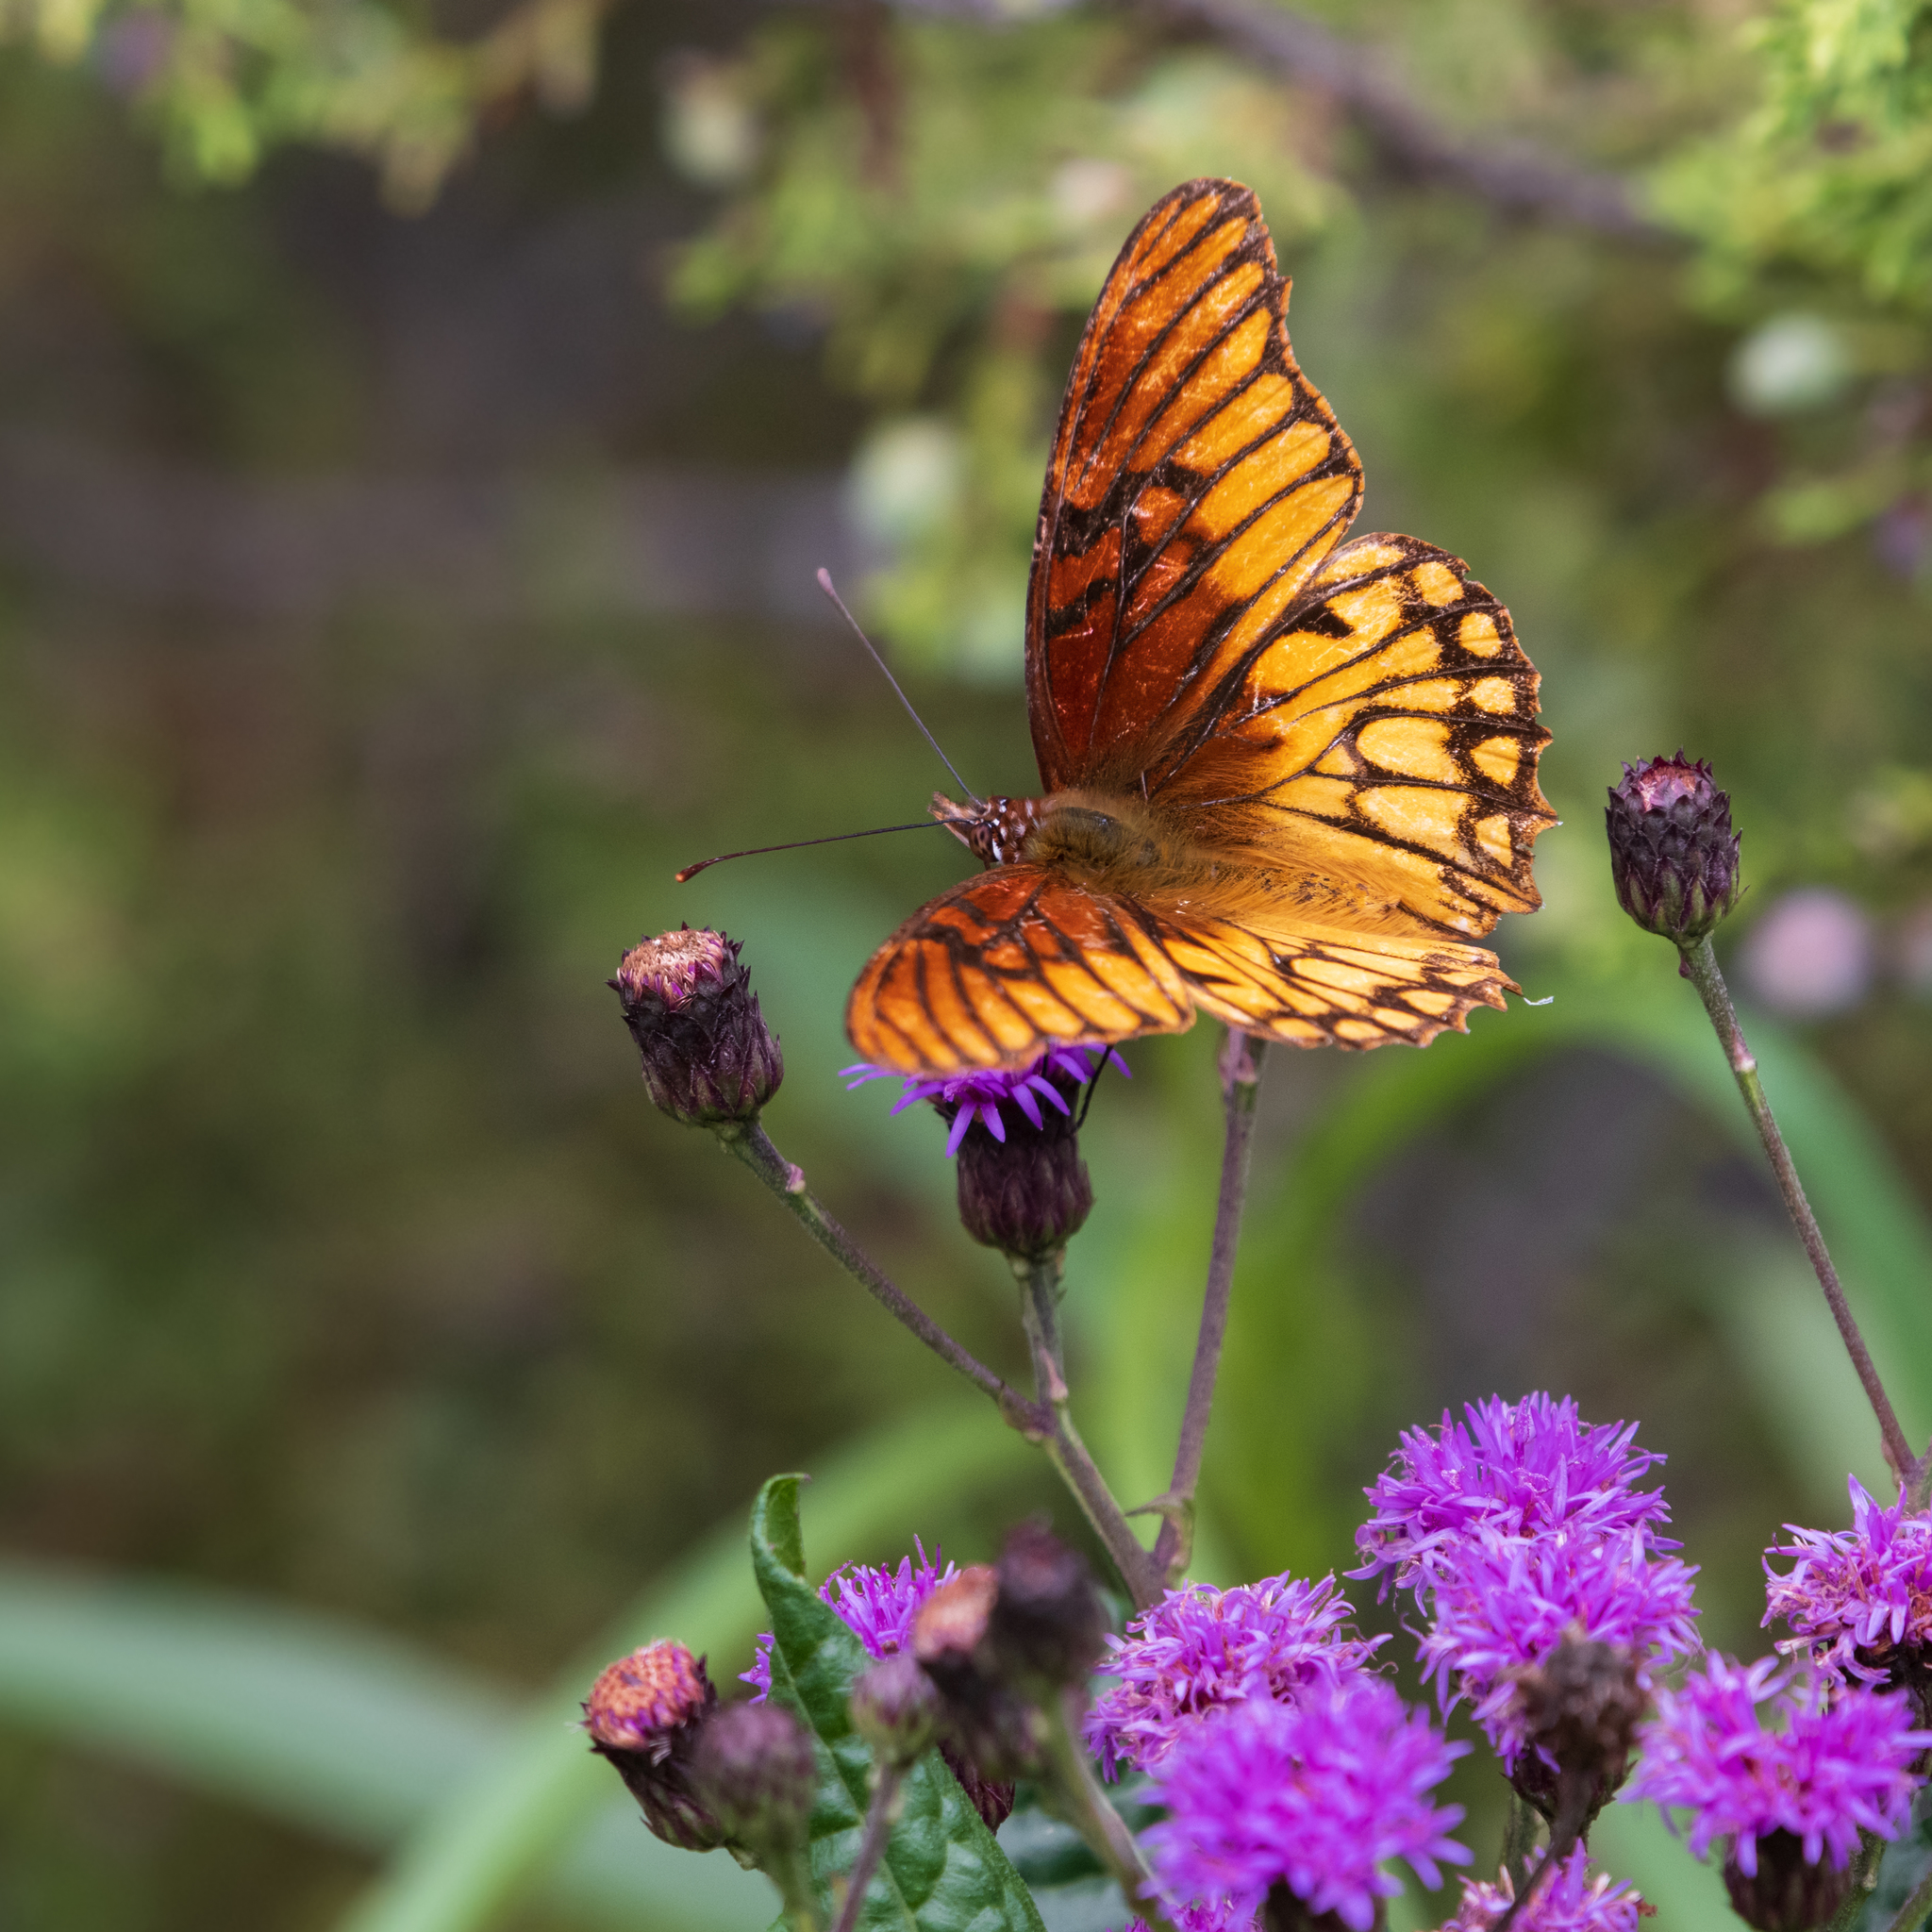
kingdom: Animalia
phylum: Arthropoda
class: Insecta
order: Lepidoptera
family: Nymphalidae
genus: Dione
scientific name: Dione moneta
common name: Mexican silverspot
